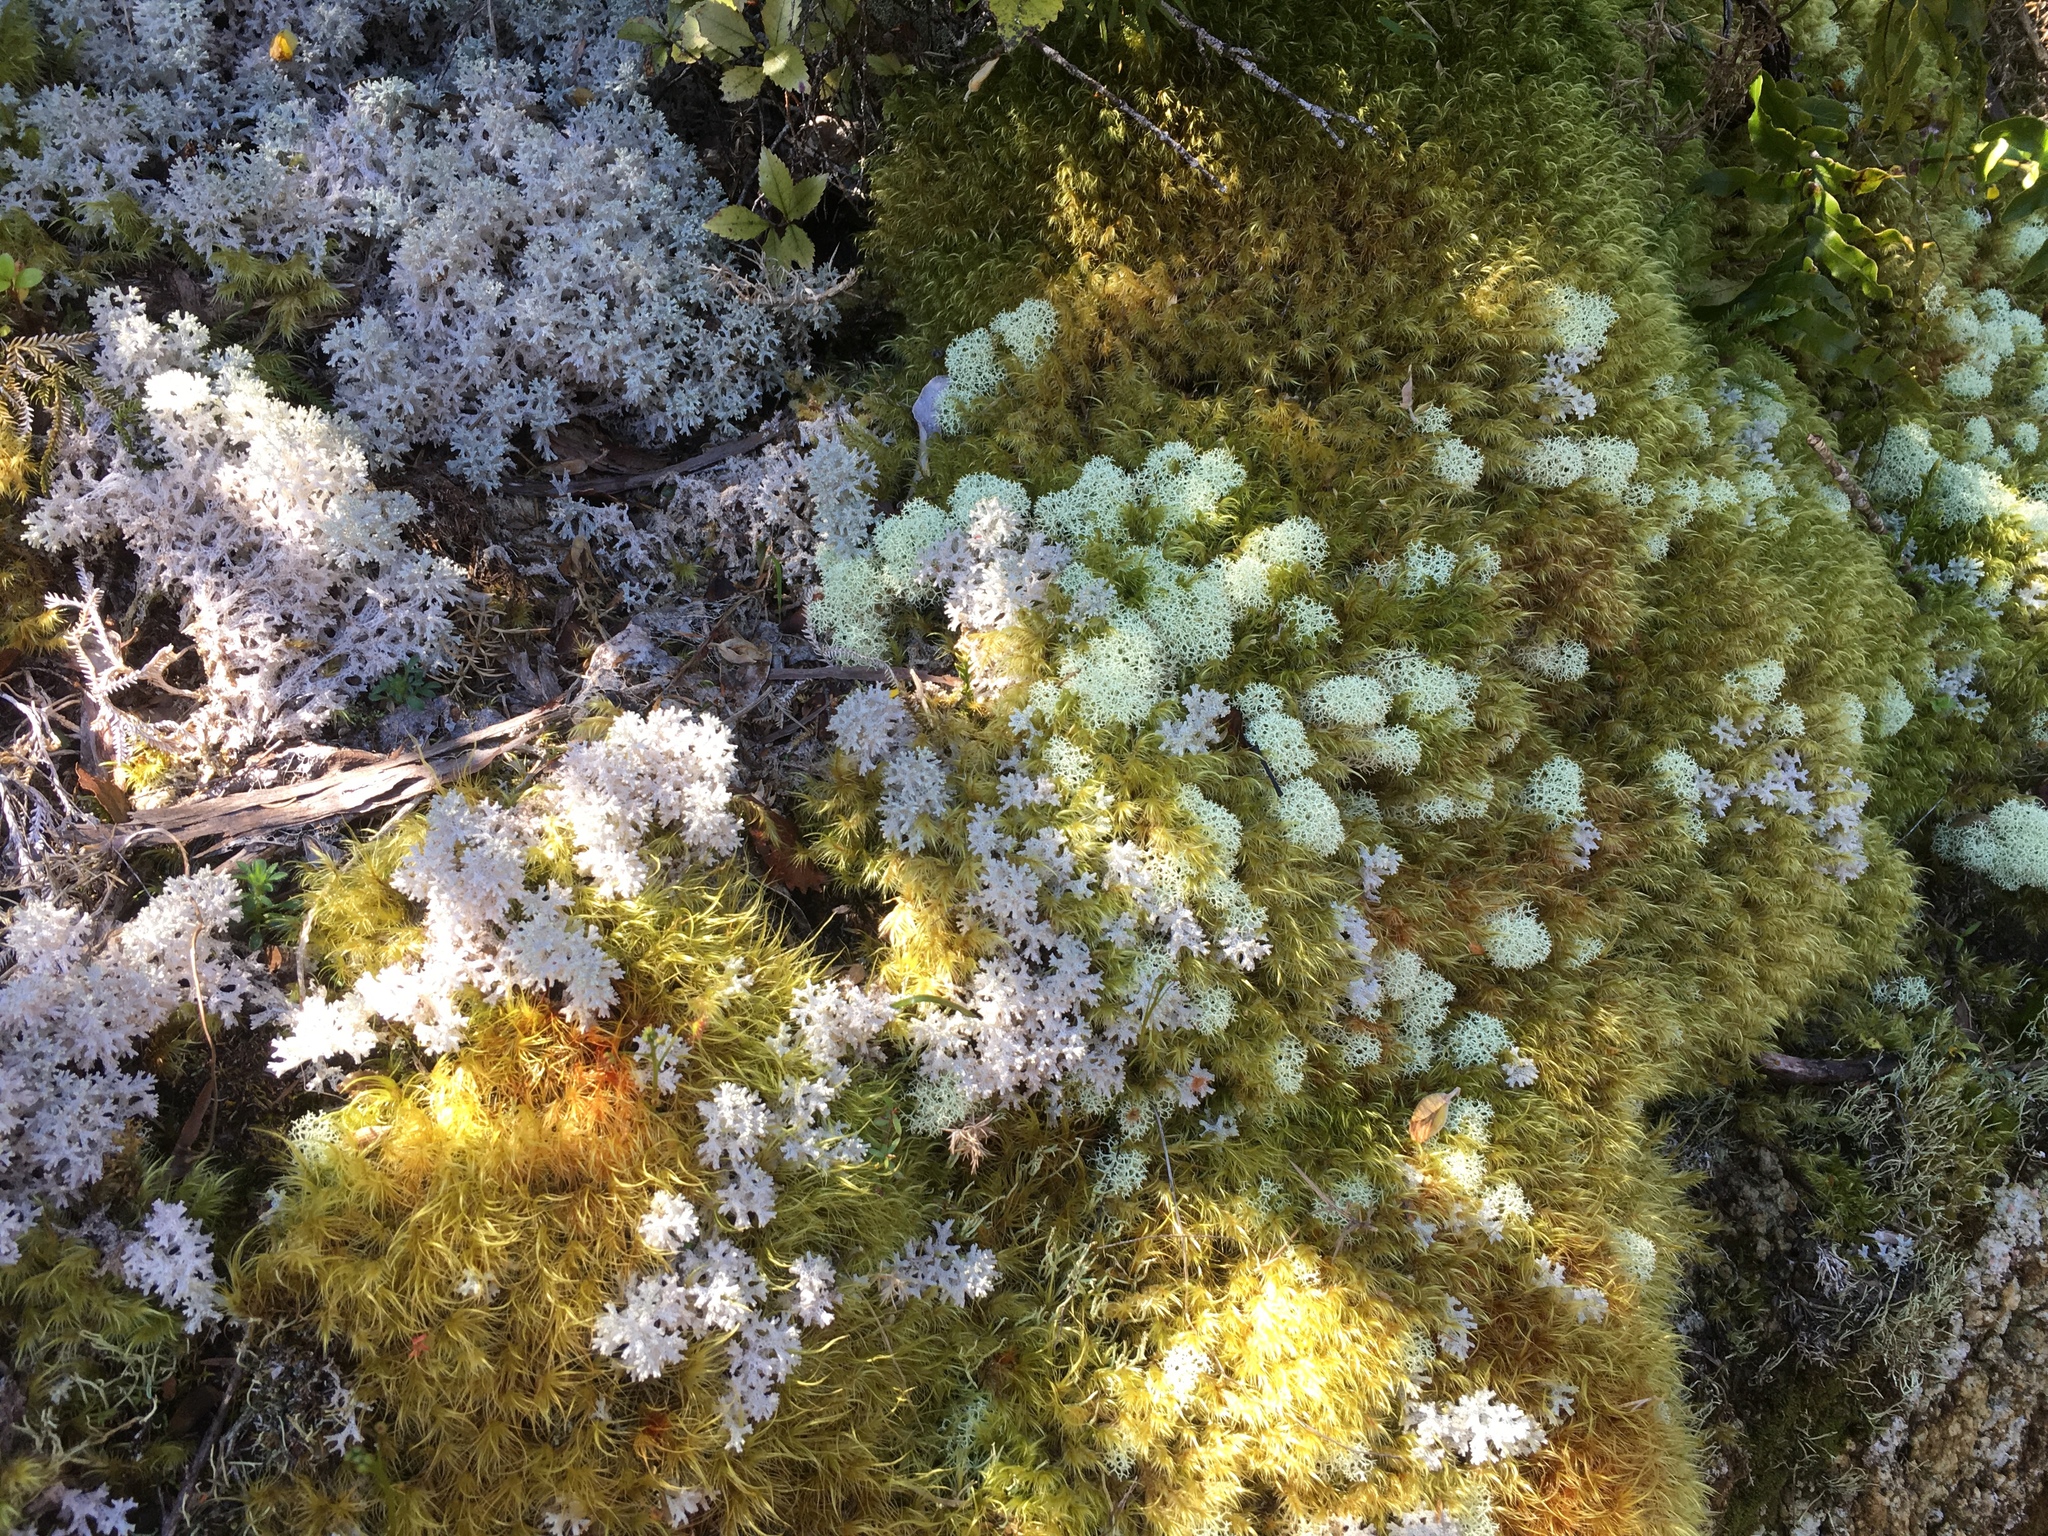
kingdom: Fungi
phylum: Ascomycota
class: Lecanoromycetes
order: Lecanorales
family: Cladoniaceae
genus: Cladonia
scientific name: Cladonia confusa
